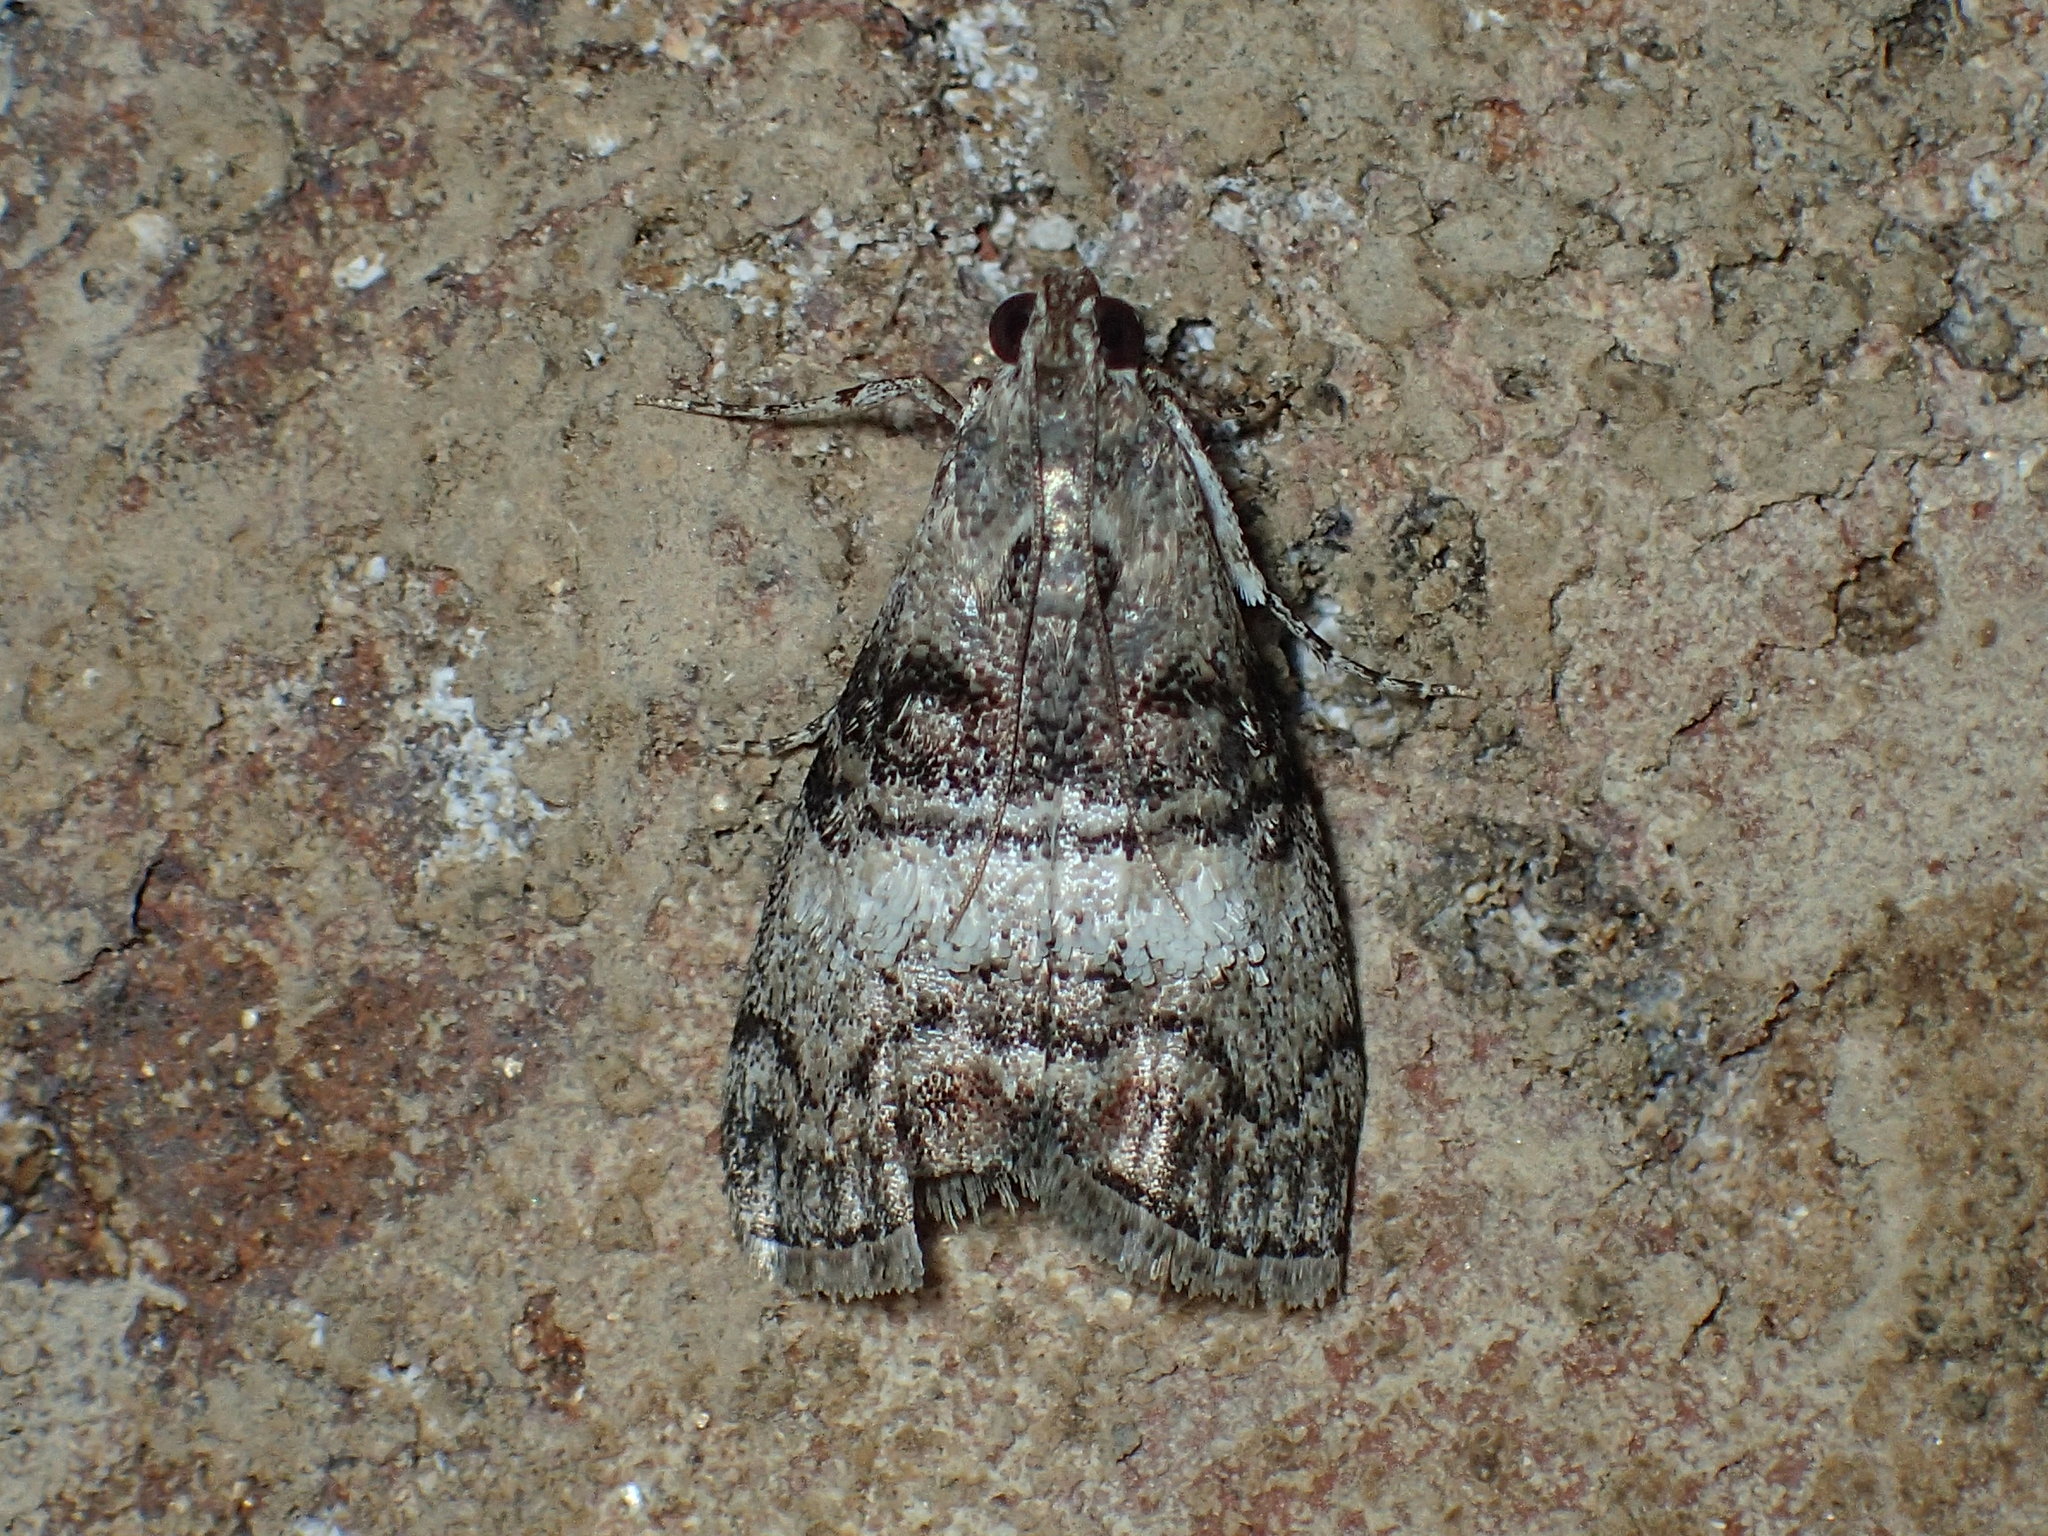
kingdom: Animalia
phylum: Arthropoda
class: Insecta
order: Lepidoptera
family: Pyralidae
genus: Pococera
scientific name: Pococera asperatella
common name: Maple webworm moth
